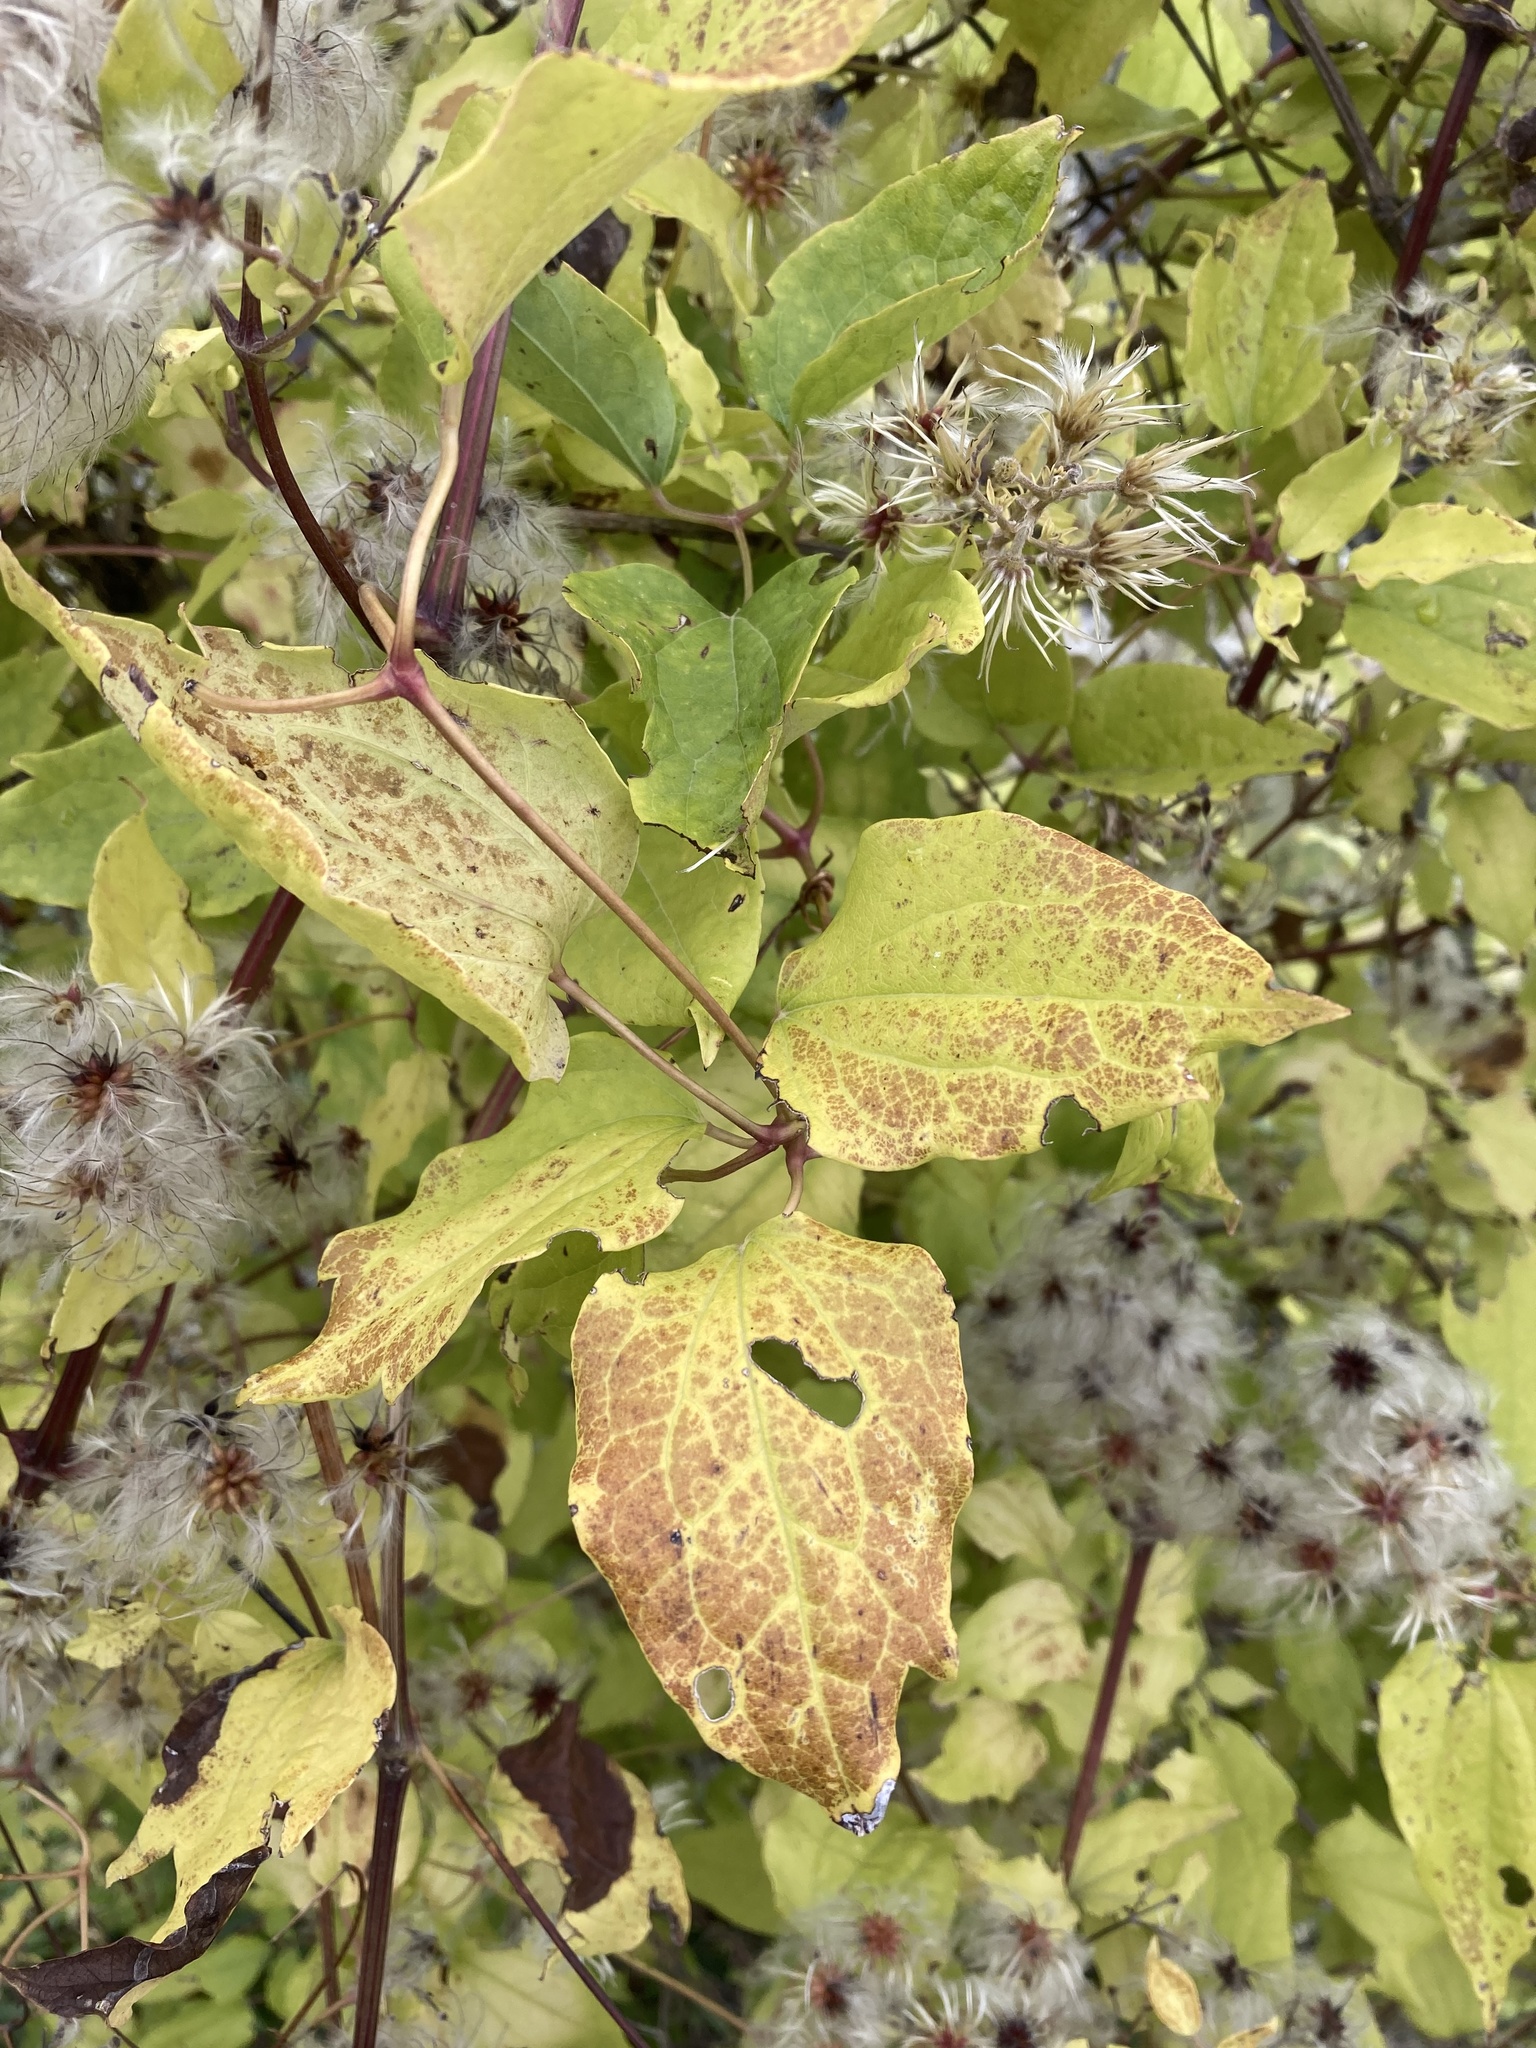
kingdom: Plantae
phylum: Tracheophyta
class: Magnoliopsida
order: Ranunculales
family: Ranunculaceae
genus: Clematis
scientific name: Clematis vitalba
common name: Evergreen clematis
